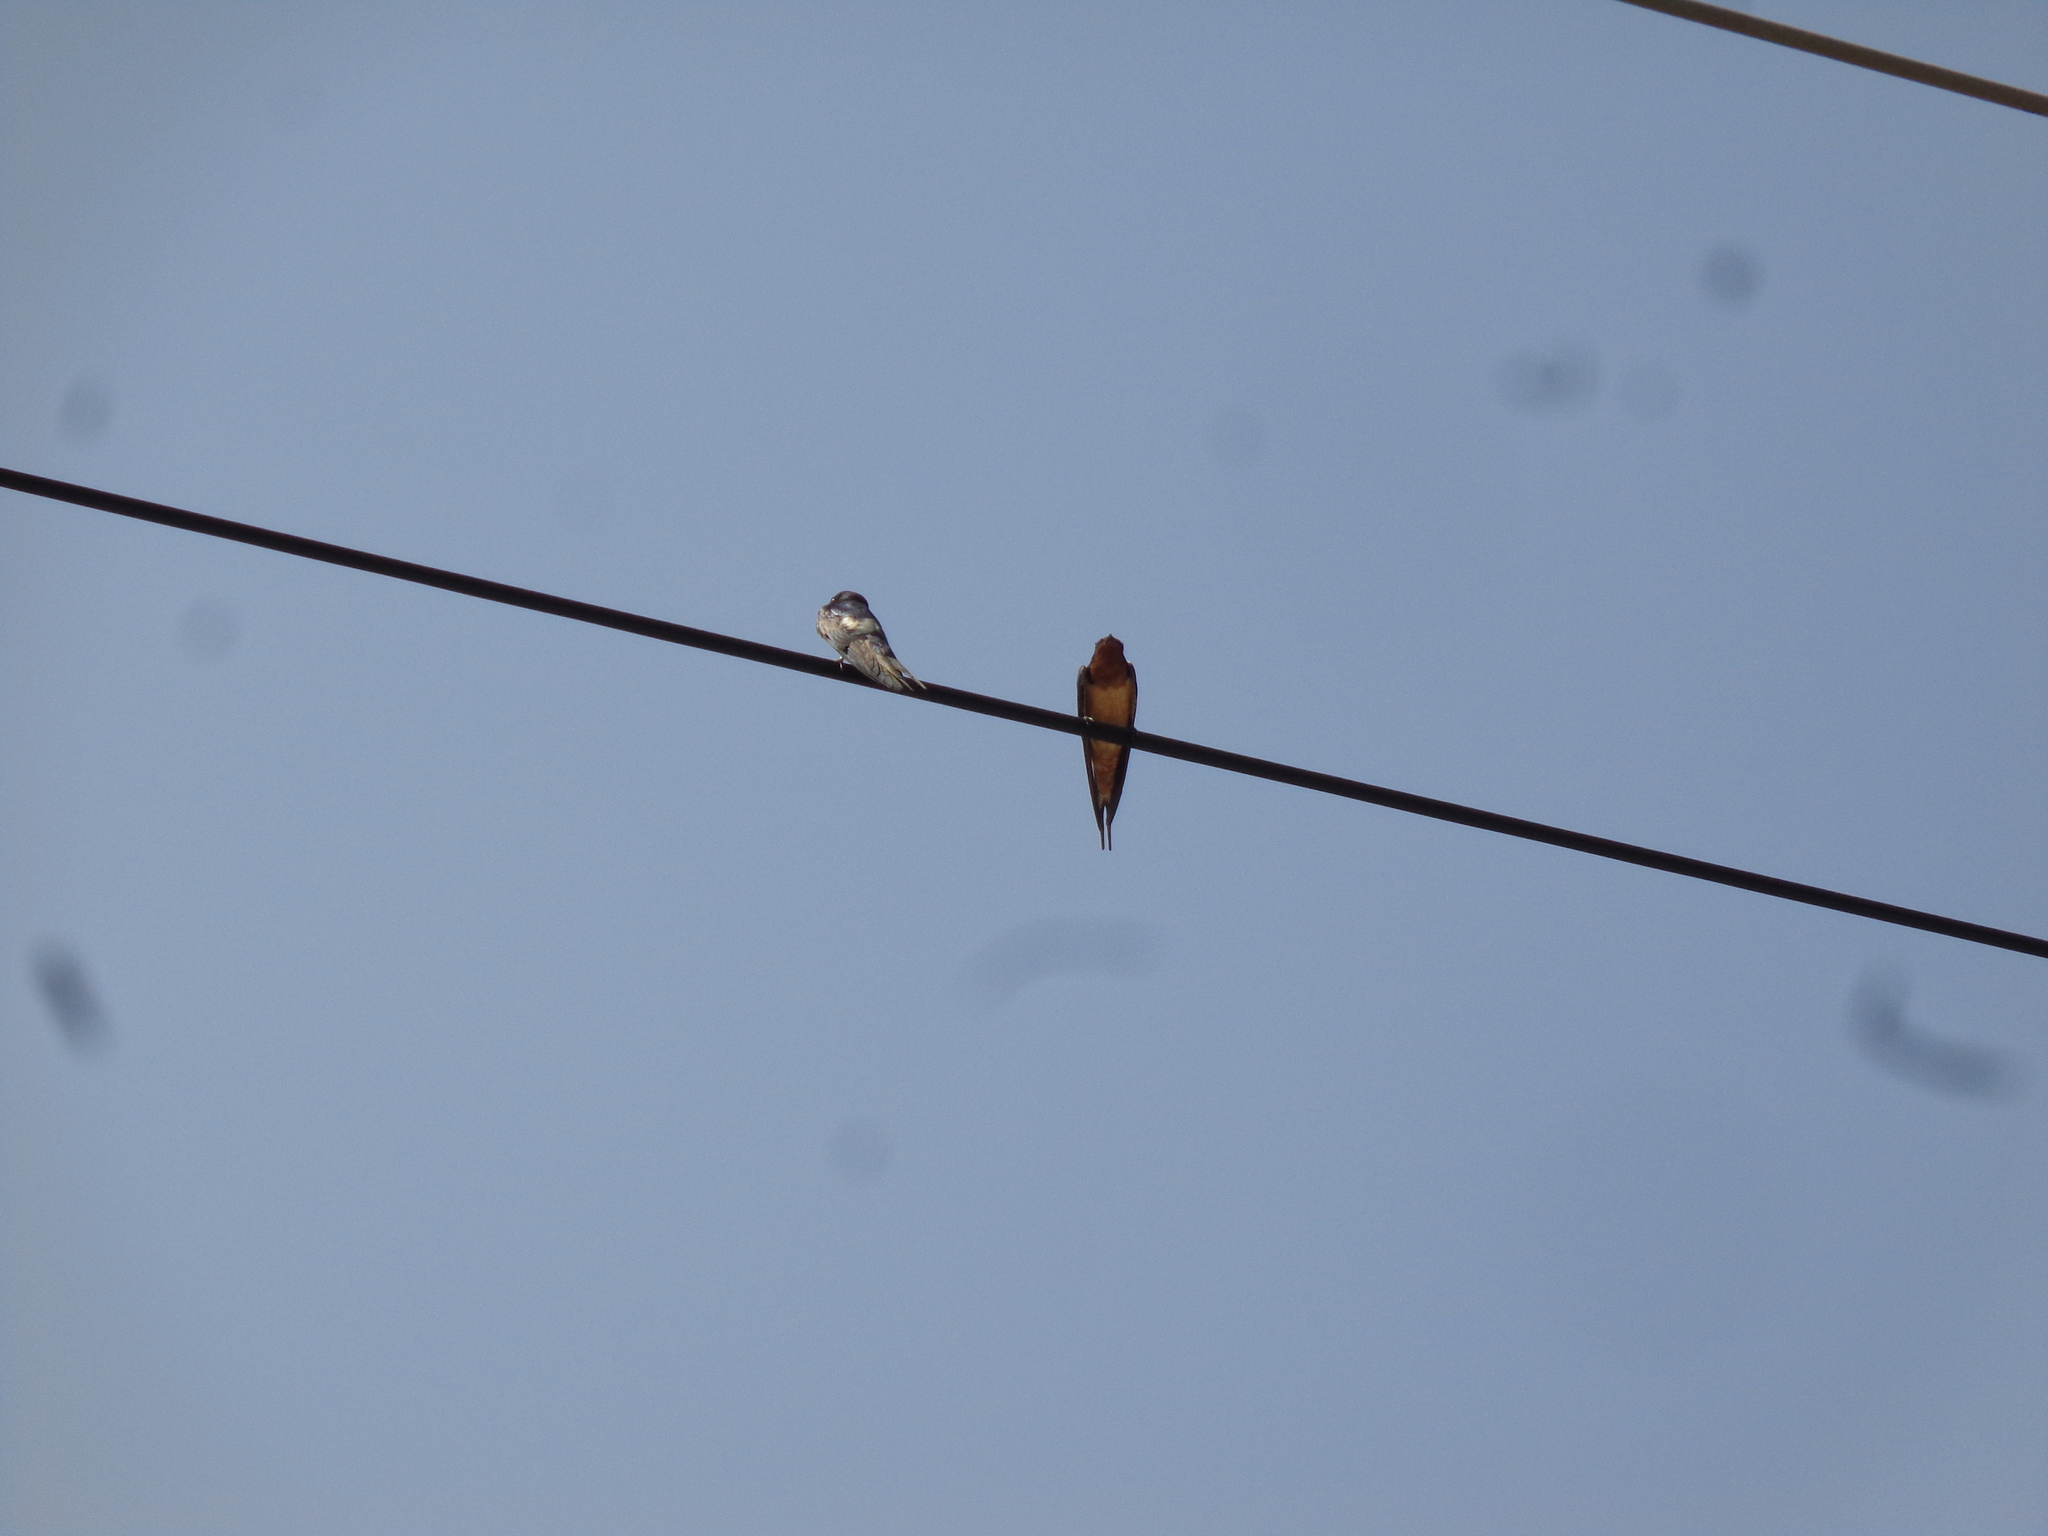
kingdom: Animalia
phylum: Chordata
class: Aves
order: Passeriformes
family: Hirundinidae
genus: Hirundo
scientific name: Hirundo rustica
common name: Barn swallow
